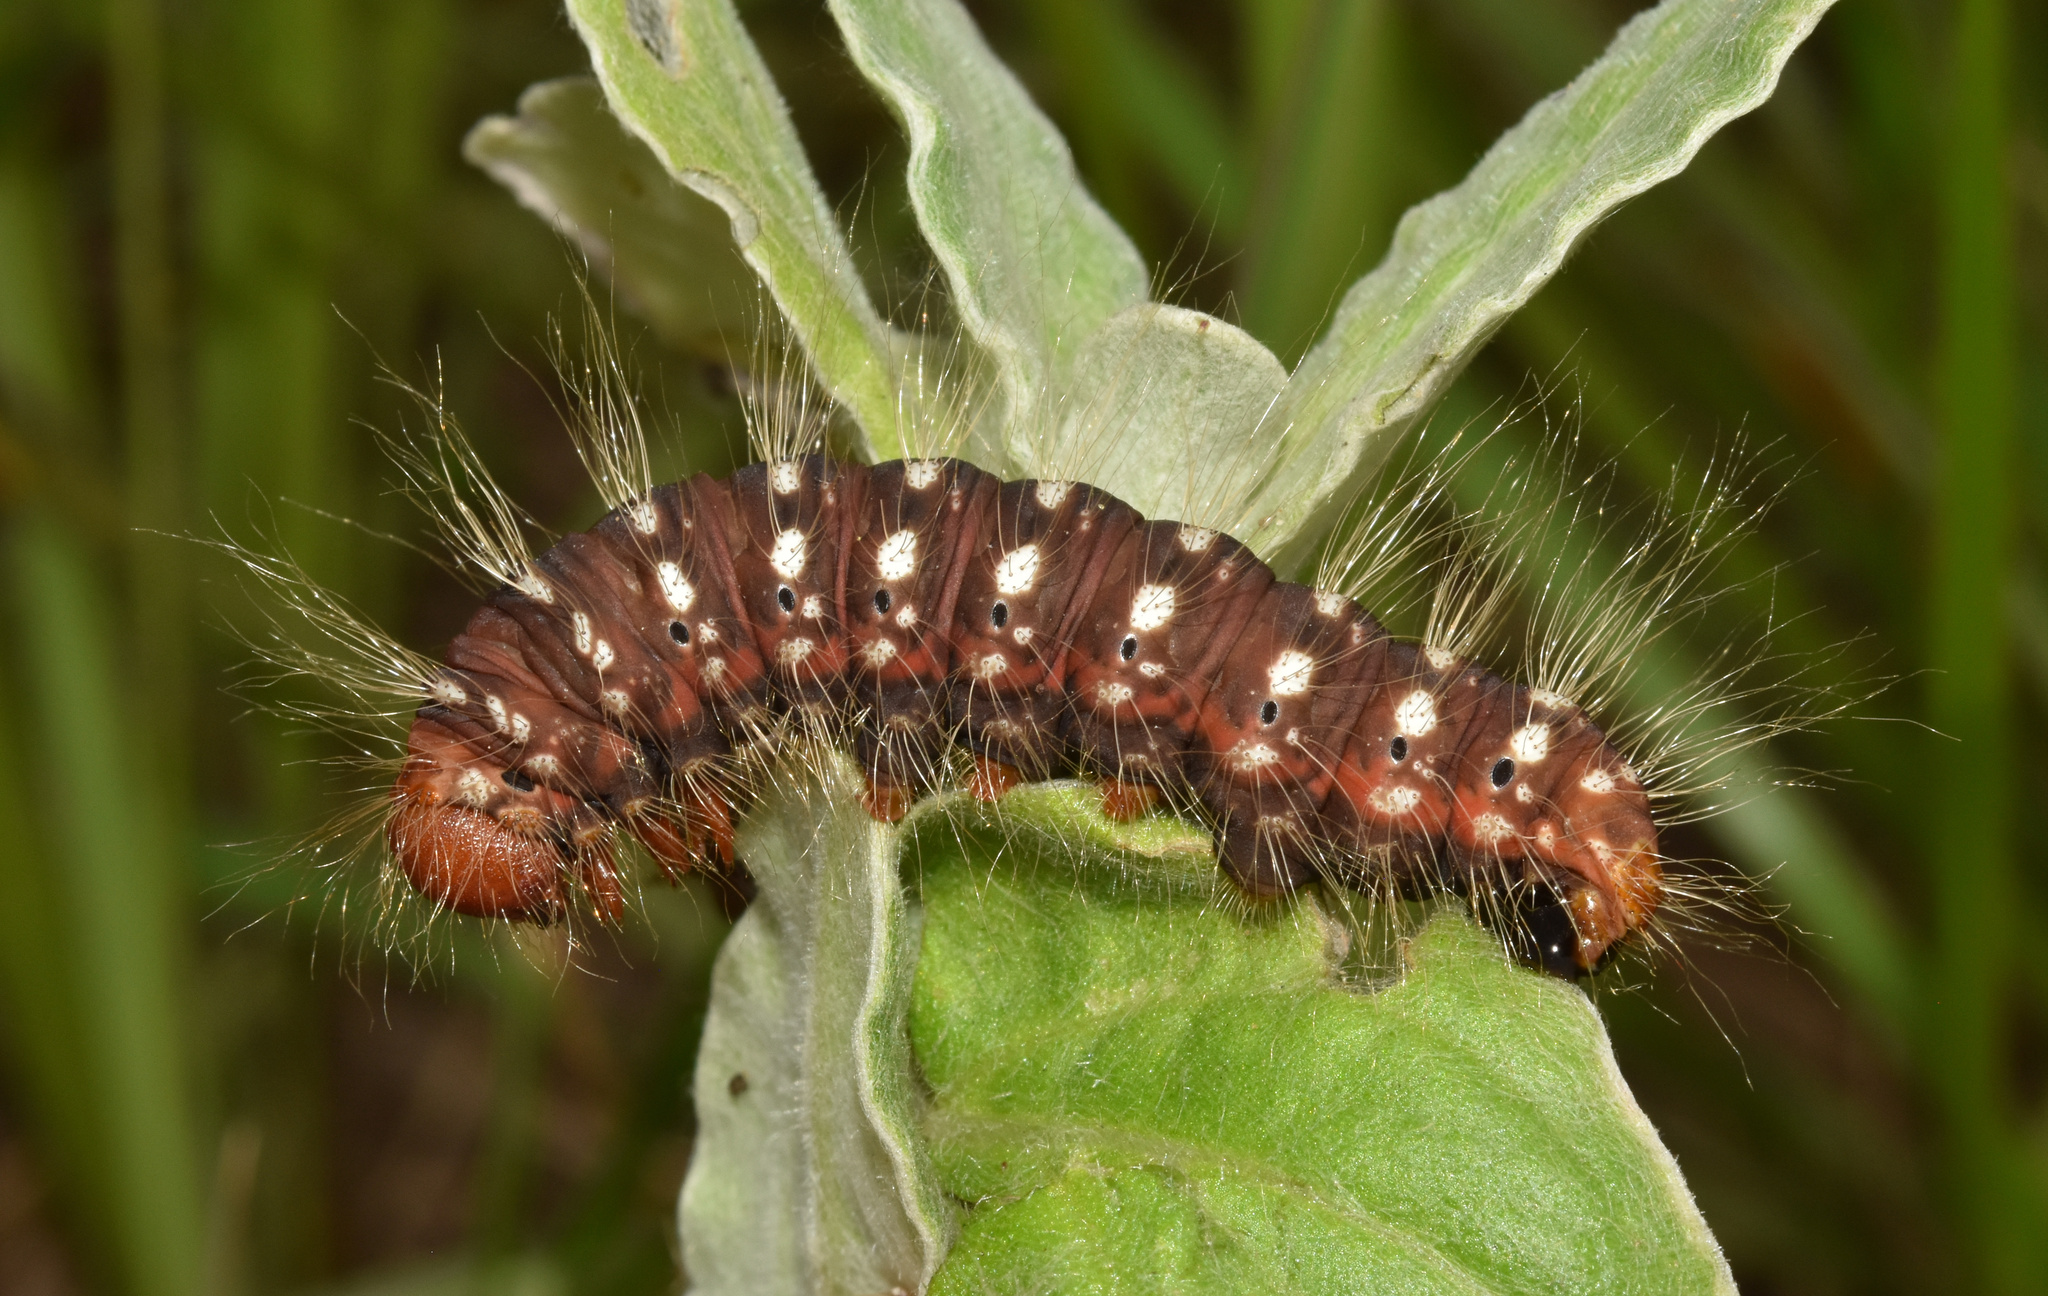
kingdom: Animalia
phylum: Arthropoda
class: Insecta
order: Lepidoptera
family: Notodontidae
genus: Antheua
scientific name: Antheua simplex
